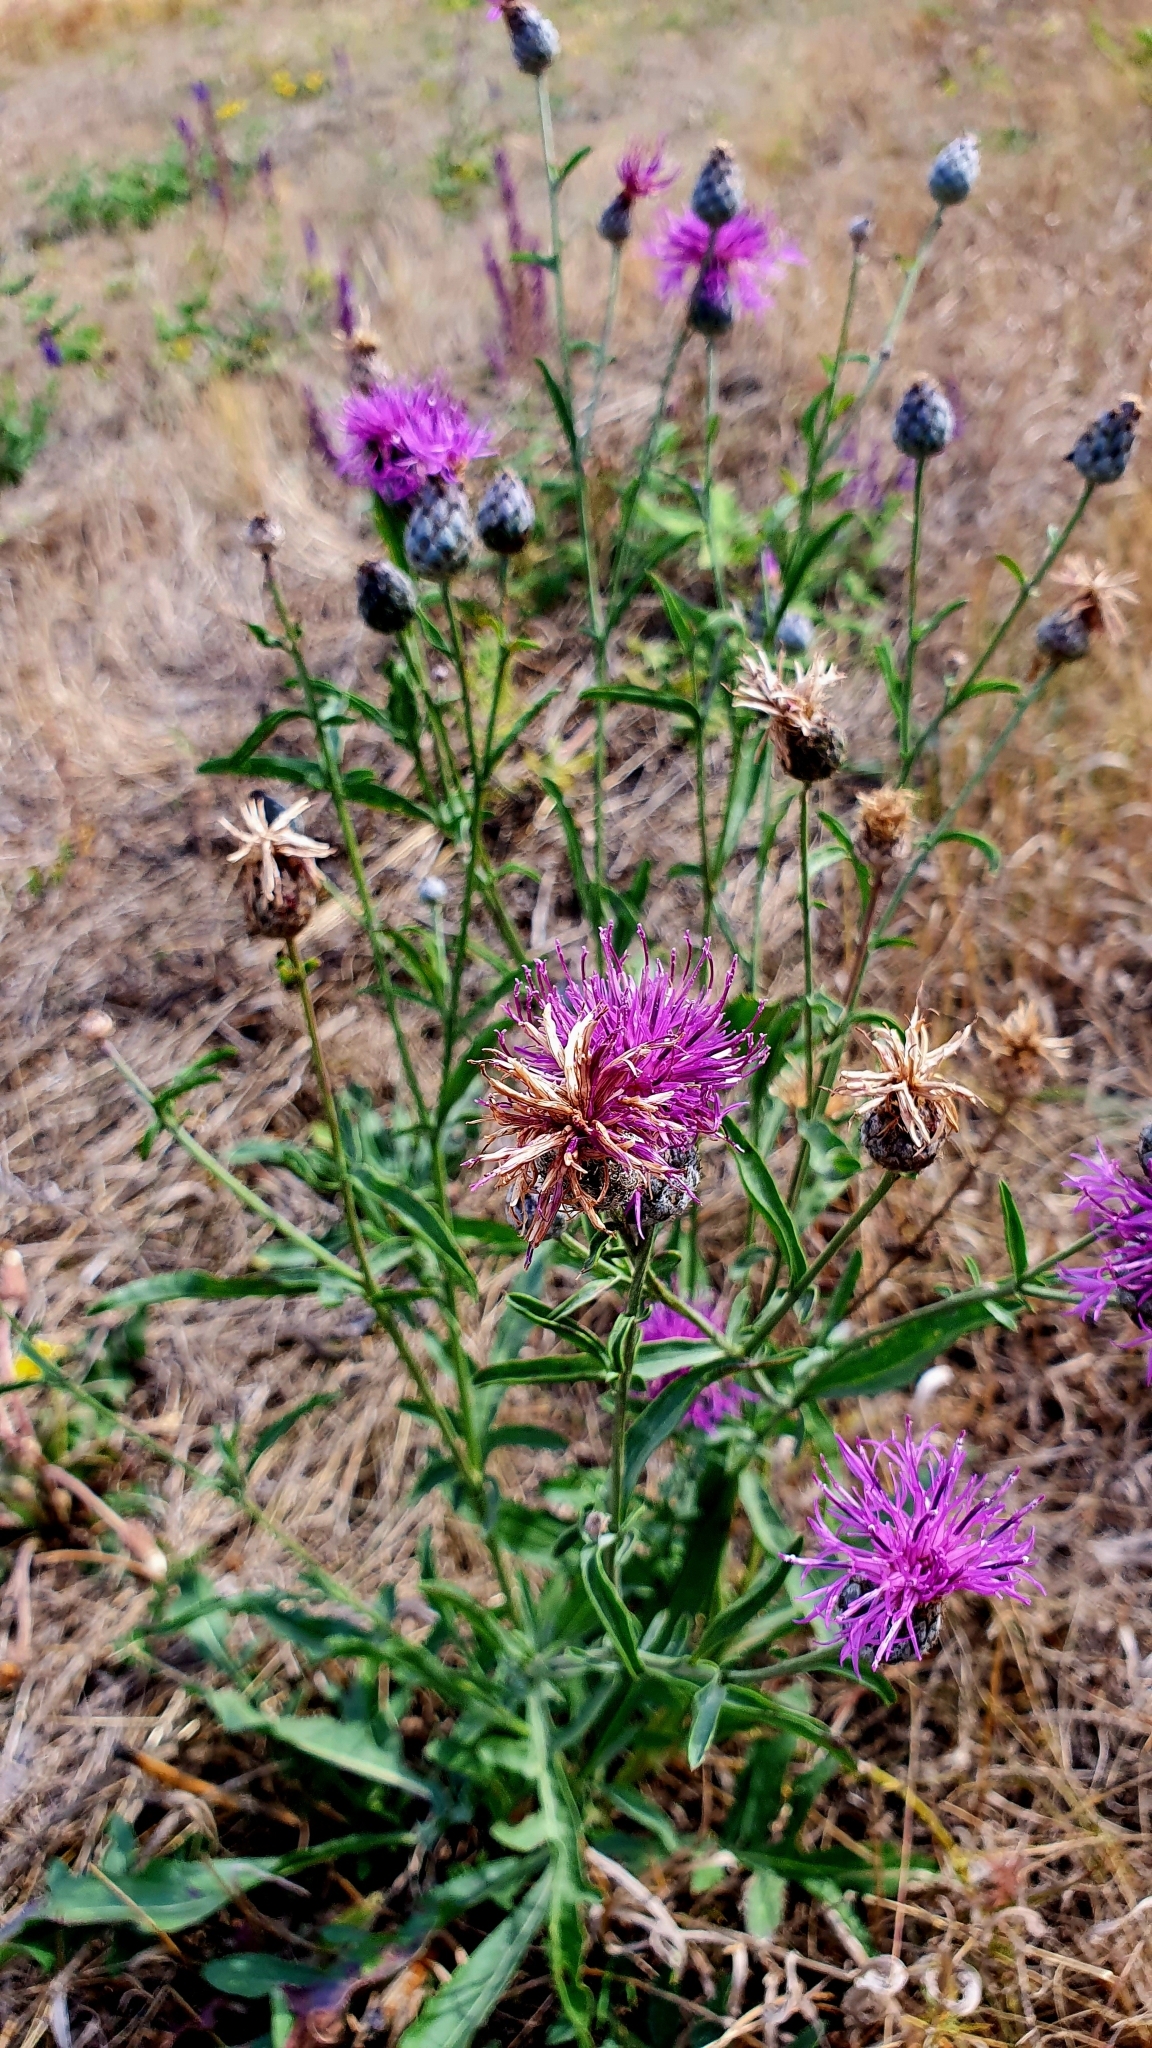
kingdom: Plantae
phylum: Tracheophyta
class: Magnoliopsida
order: Asterales
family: Asteraceae
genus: Centaurea
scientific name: Centaurea scabiosa
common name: Greater knapweed
